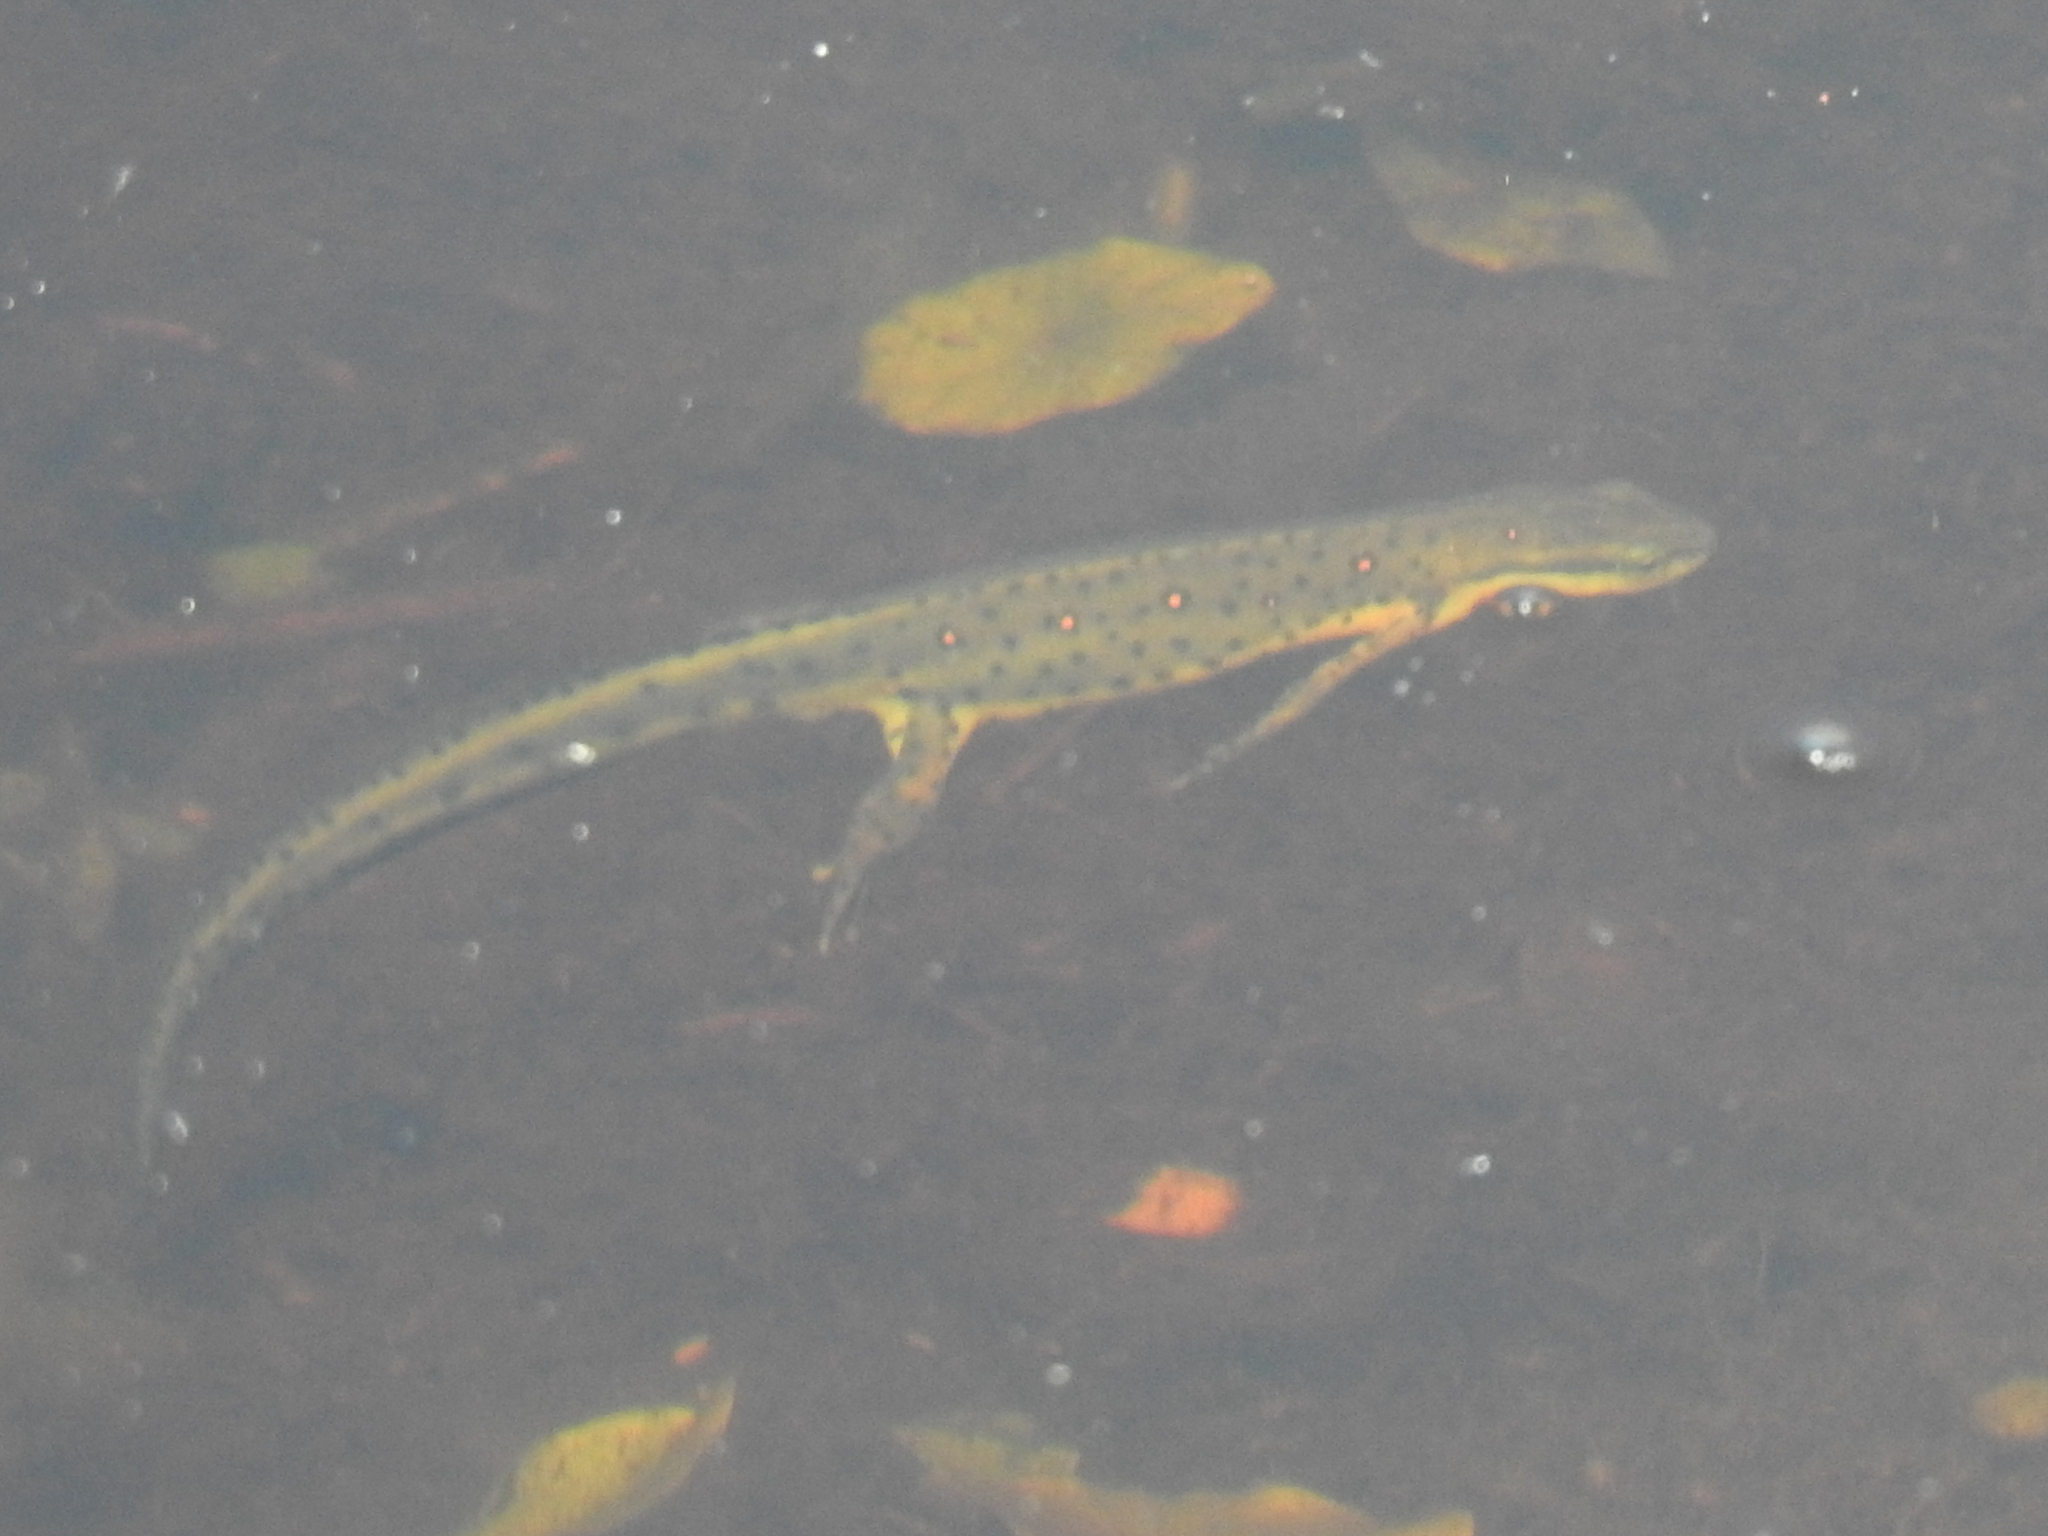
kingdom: Animalia
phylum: Chordata
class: Amphibia
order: Caudata
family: Salamandridae
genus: Notophthalmus
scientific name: Notophthalmus viridescens
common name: Eastern newt
